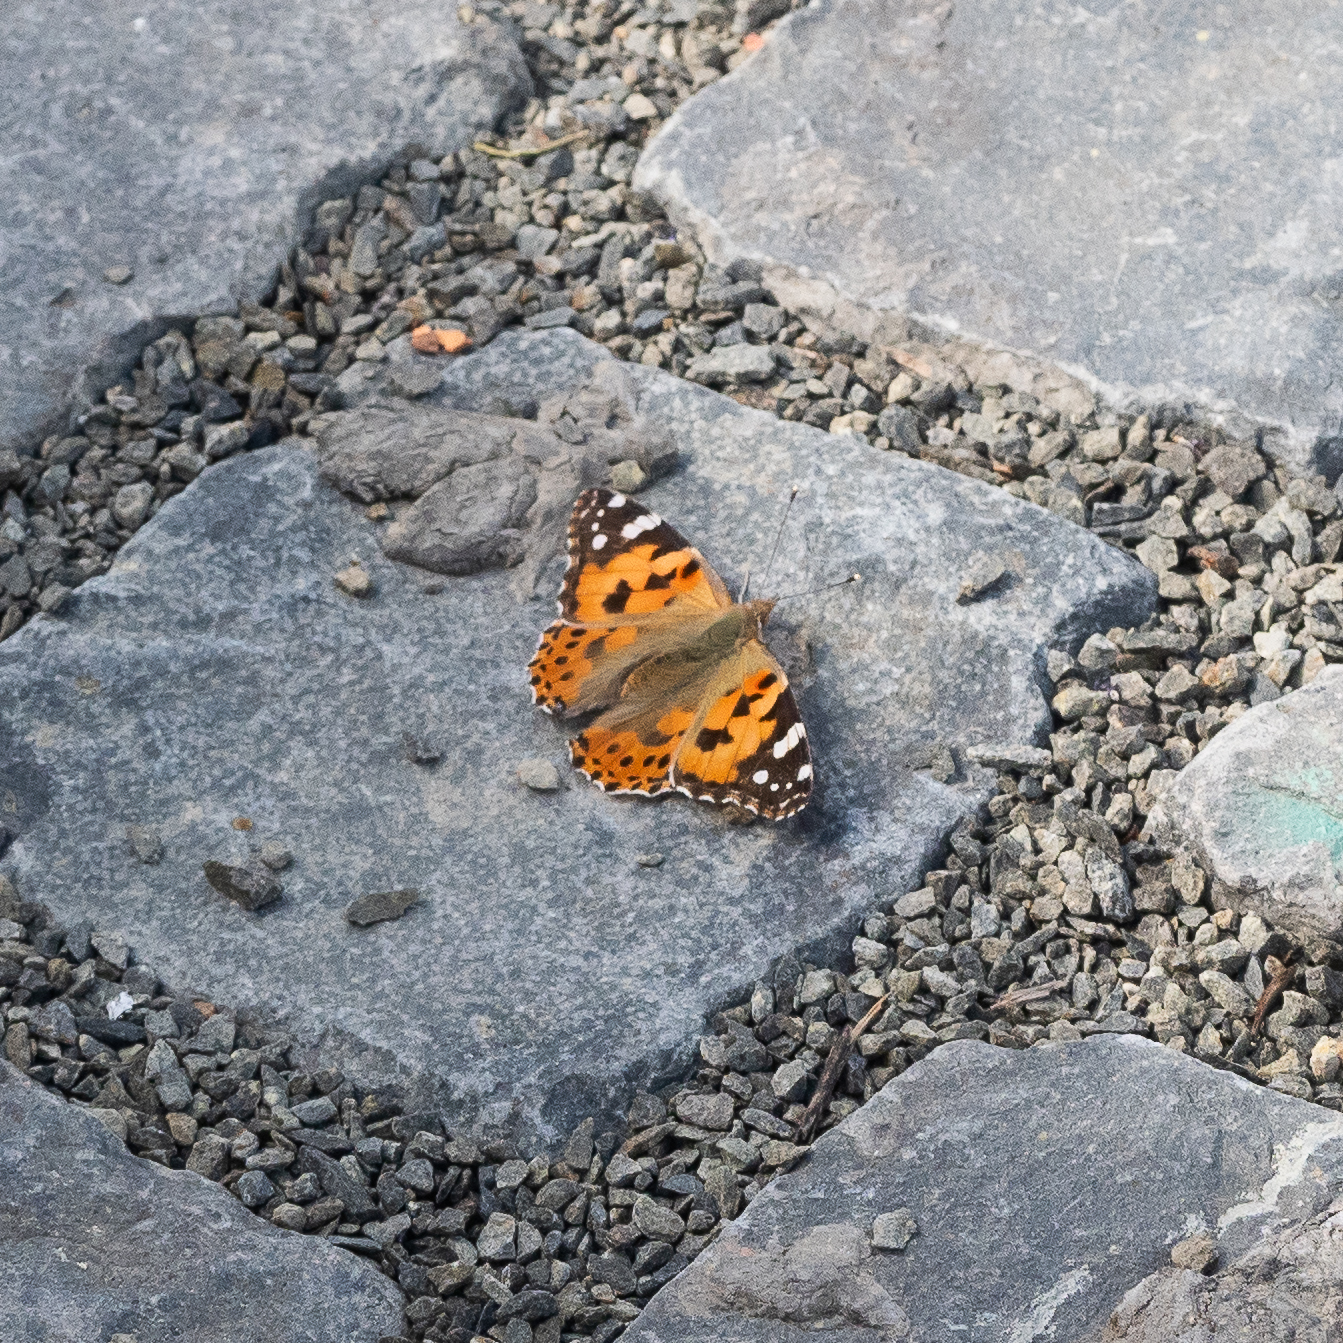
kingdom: Animalia
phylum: Arthropoda
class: Insecta
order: Lepidoptera
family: Nymphalidae
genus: Vanessa
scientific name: Vanessa cardui
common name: Painted lady
